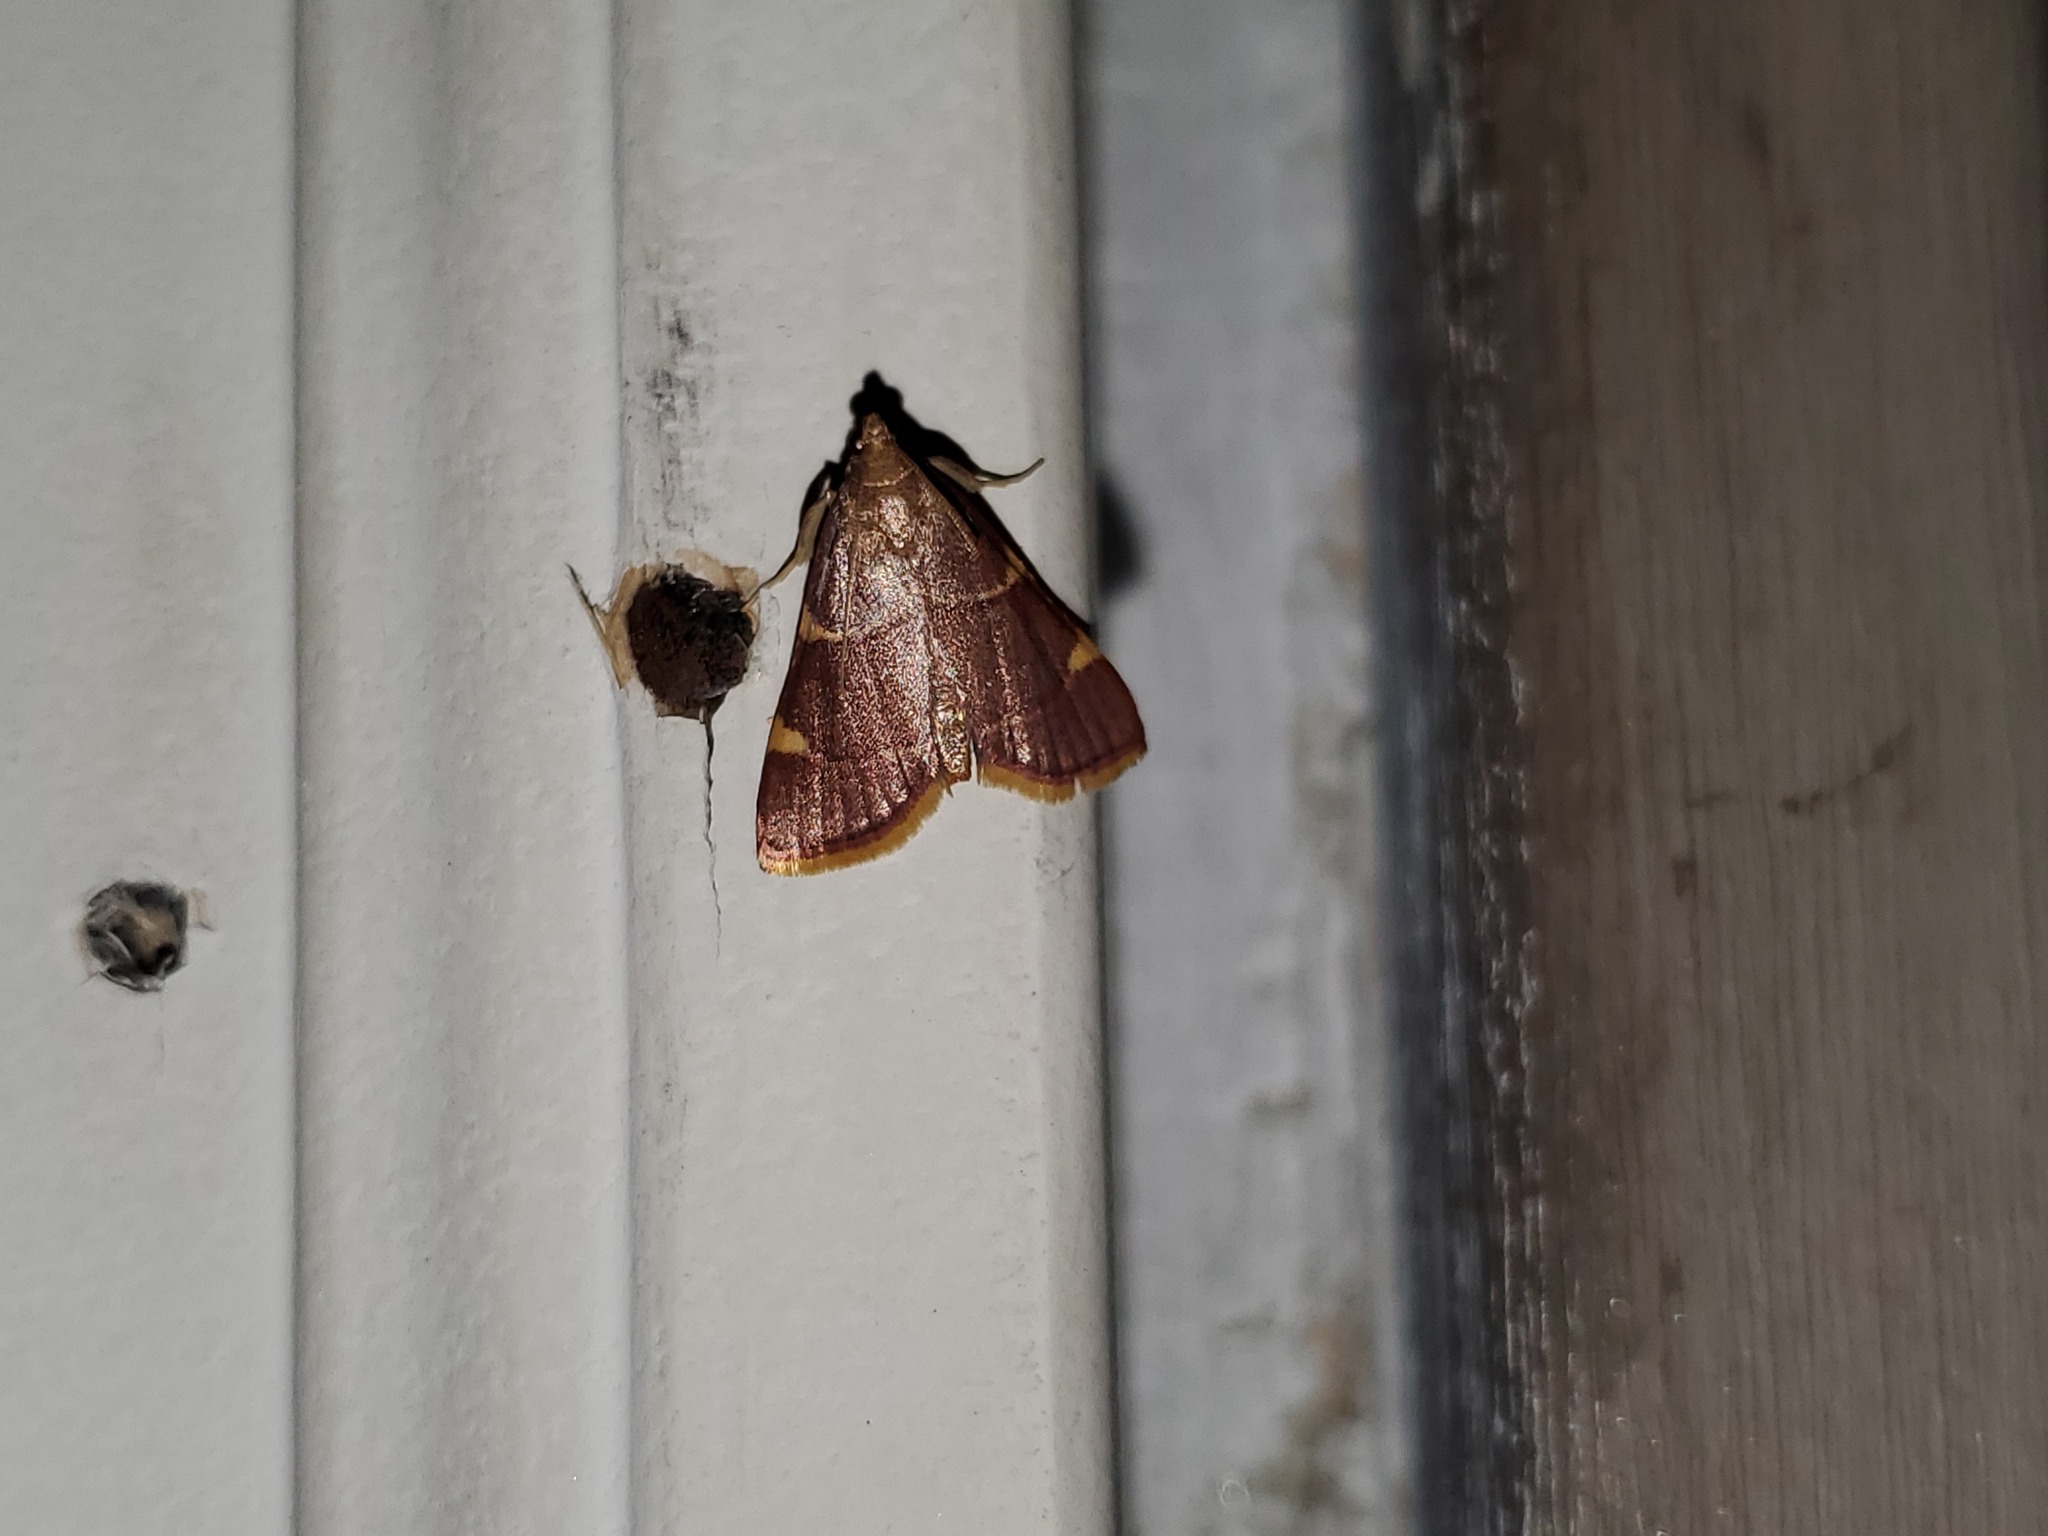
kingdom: Animalia
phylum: Arthropoda
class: Insecta
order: Lepidoptera
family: Pyralidae
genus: Hypsopygia
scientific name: Hypsopygia olinalis
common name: Yellow-fringed dolichomia moth
